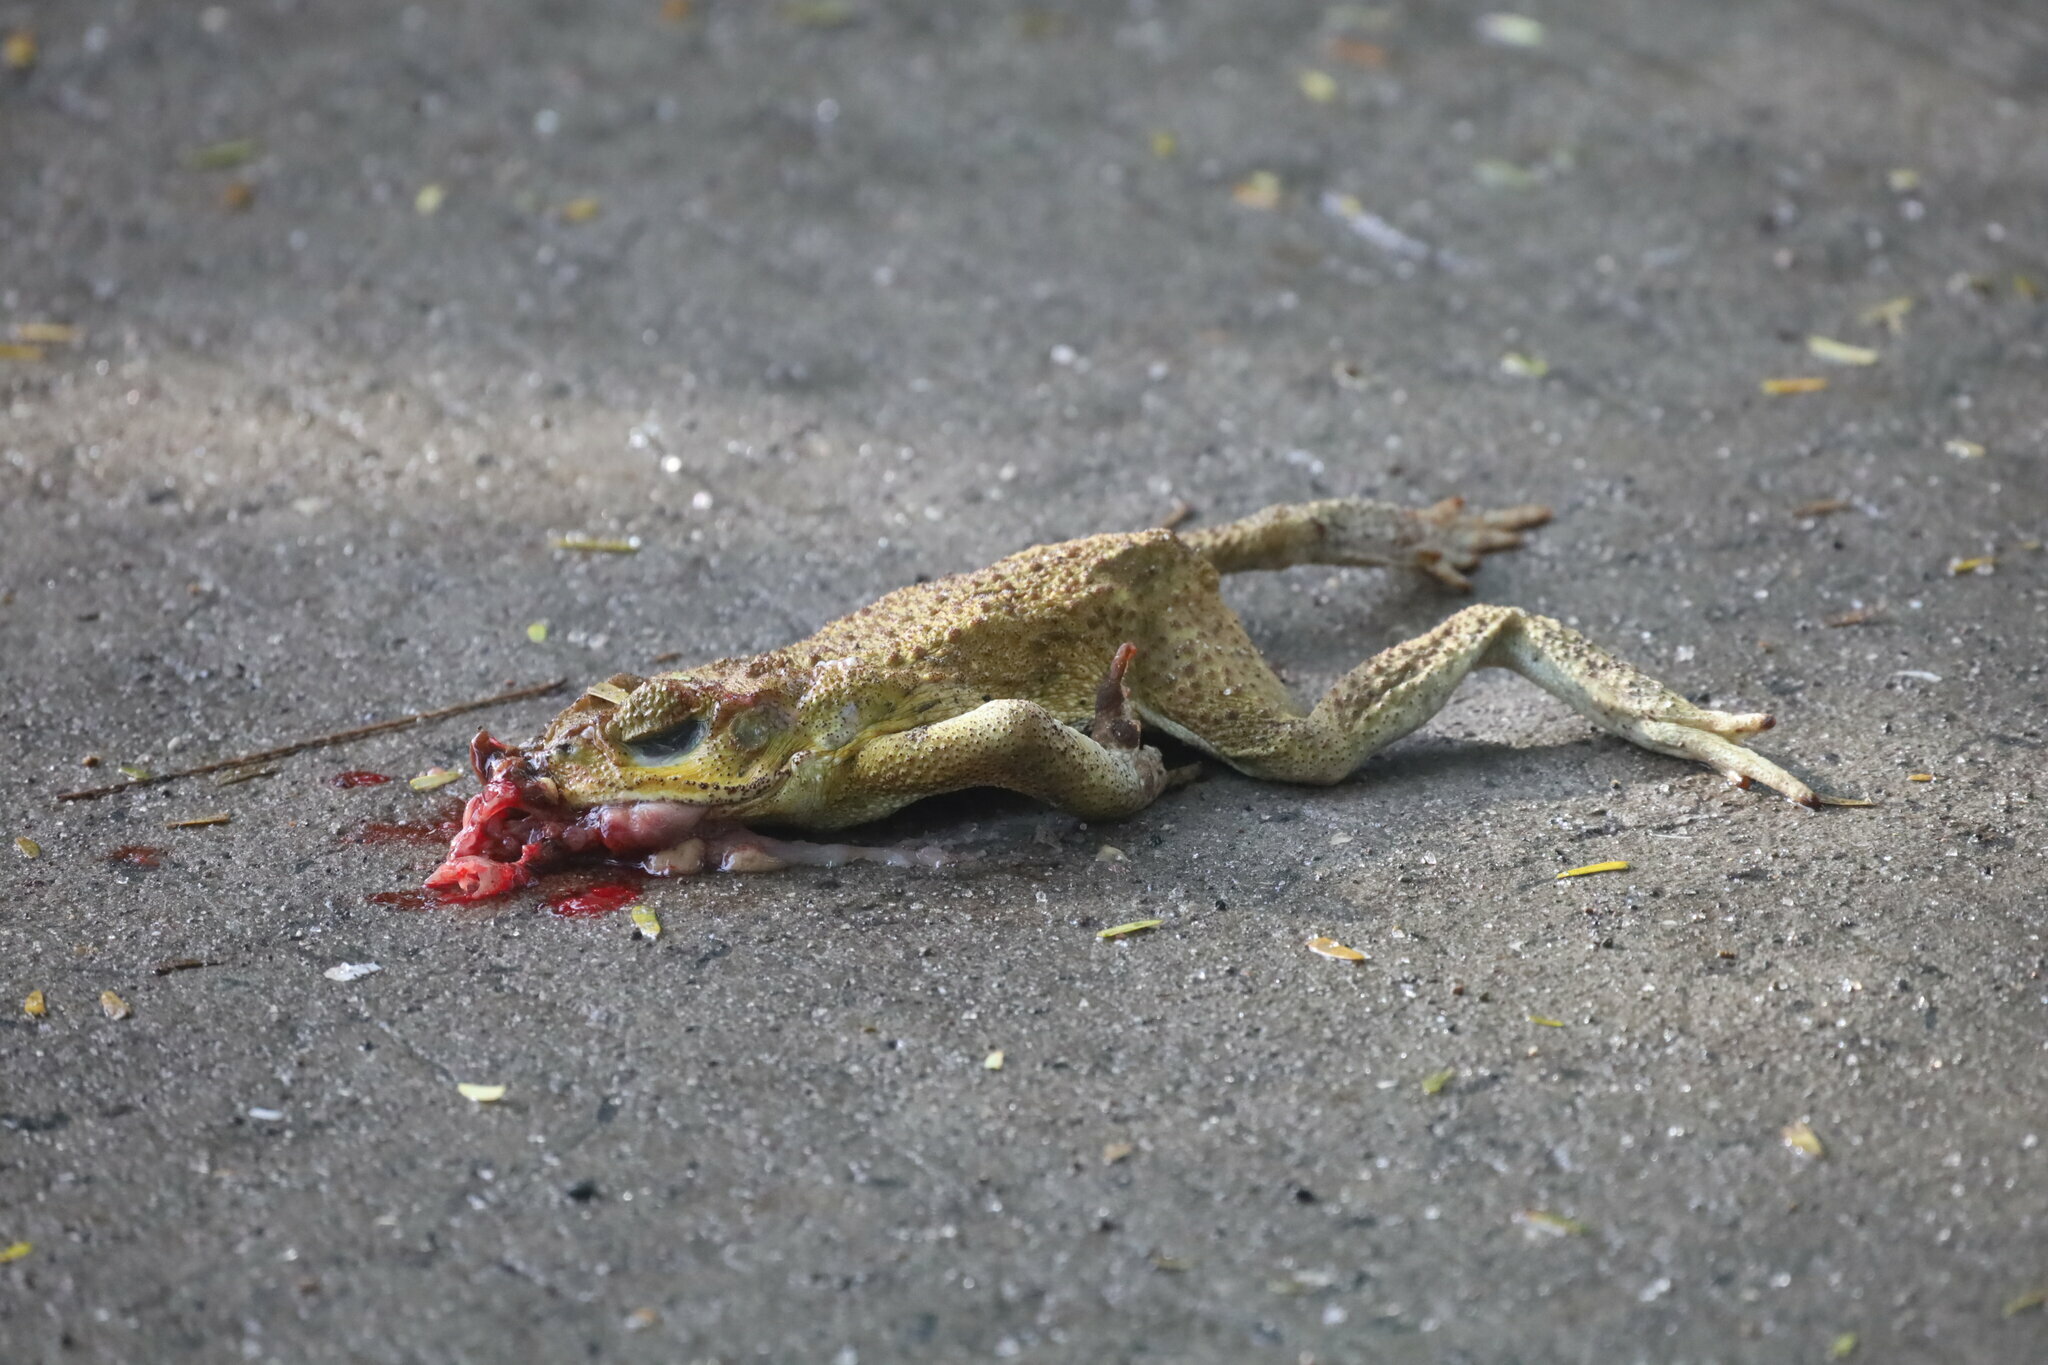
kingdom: Animalia
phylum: Chordata
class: Amphibia
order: Anura
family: Bufonidae
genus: Rhinella
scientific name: Rhinella horribilis
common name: Mesoamerican cane toad
